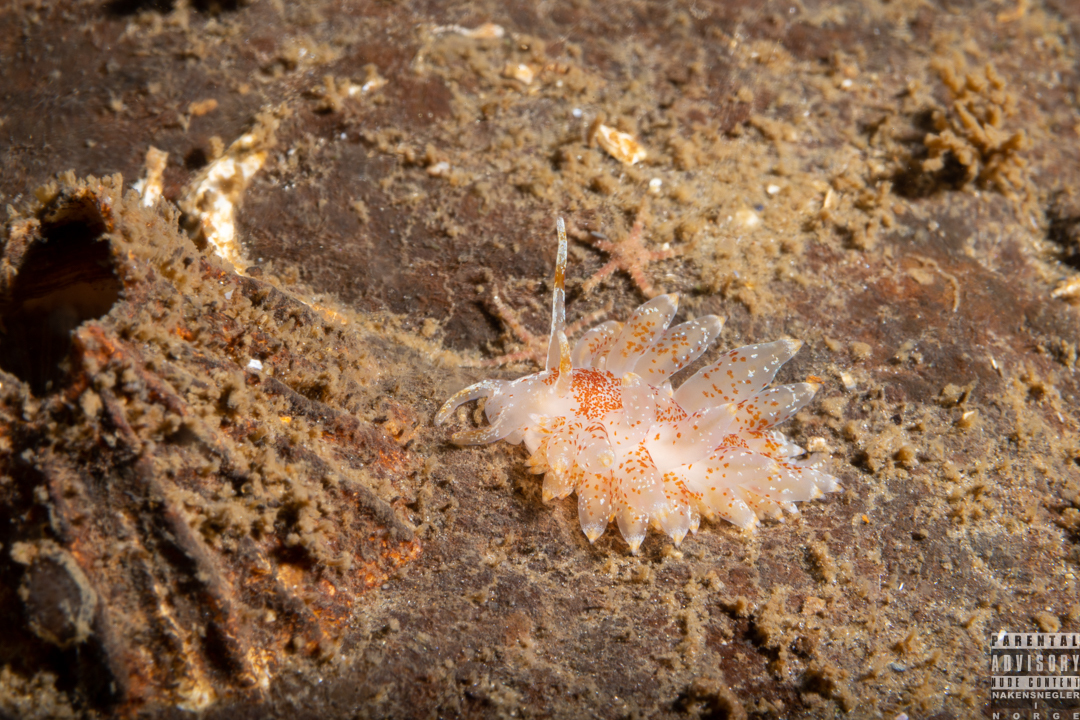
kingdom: Animalia
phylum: Mollusca
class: Gastropoda
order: Nudibranchia
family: Eubranchidae
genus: Amphorina
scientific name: Amphorina pallida
